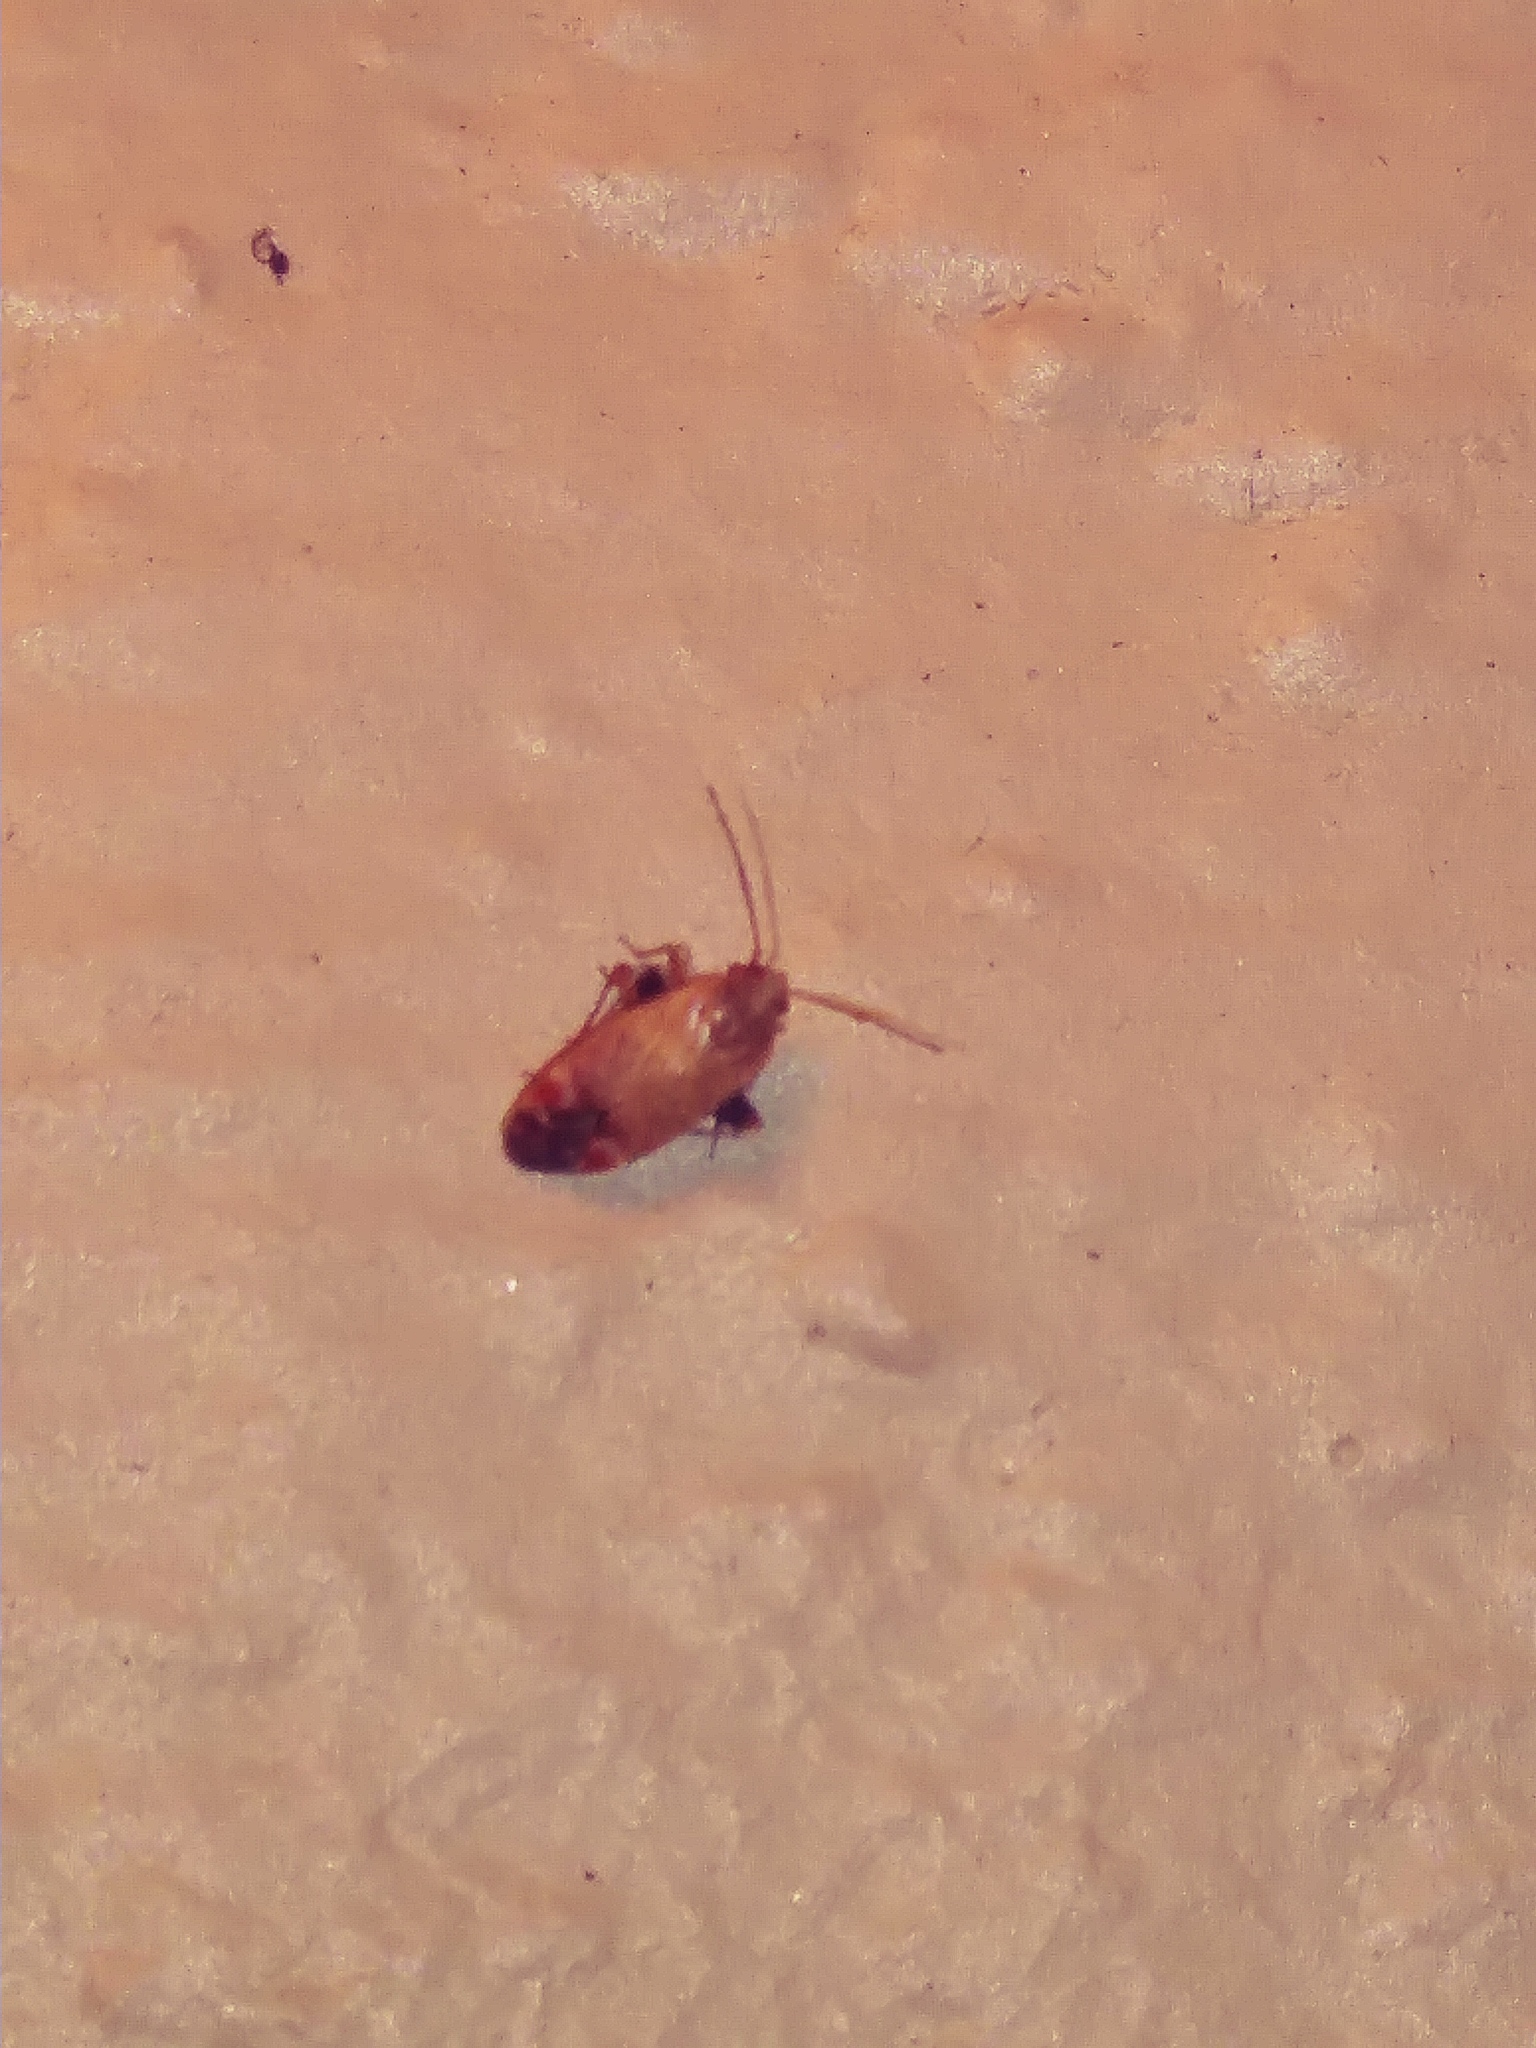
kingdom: Animalia
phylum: Arthropoda
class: Insecta
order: Hemiptera
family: Miridae
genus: Hamatophylus
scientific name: Hamatophylus guttulosus
